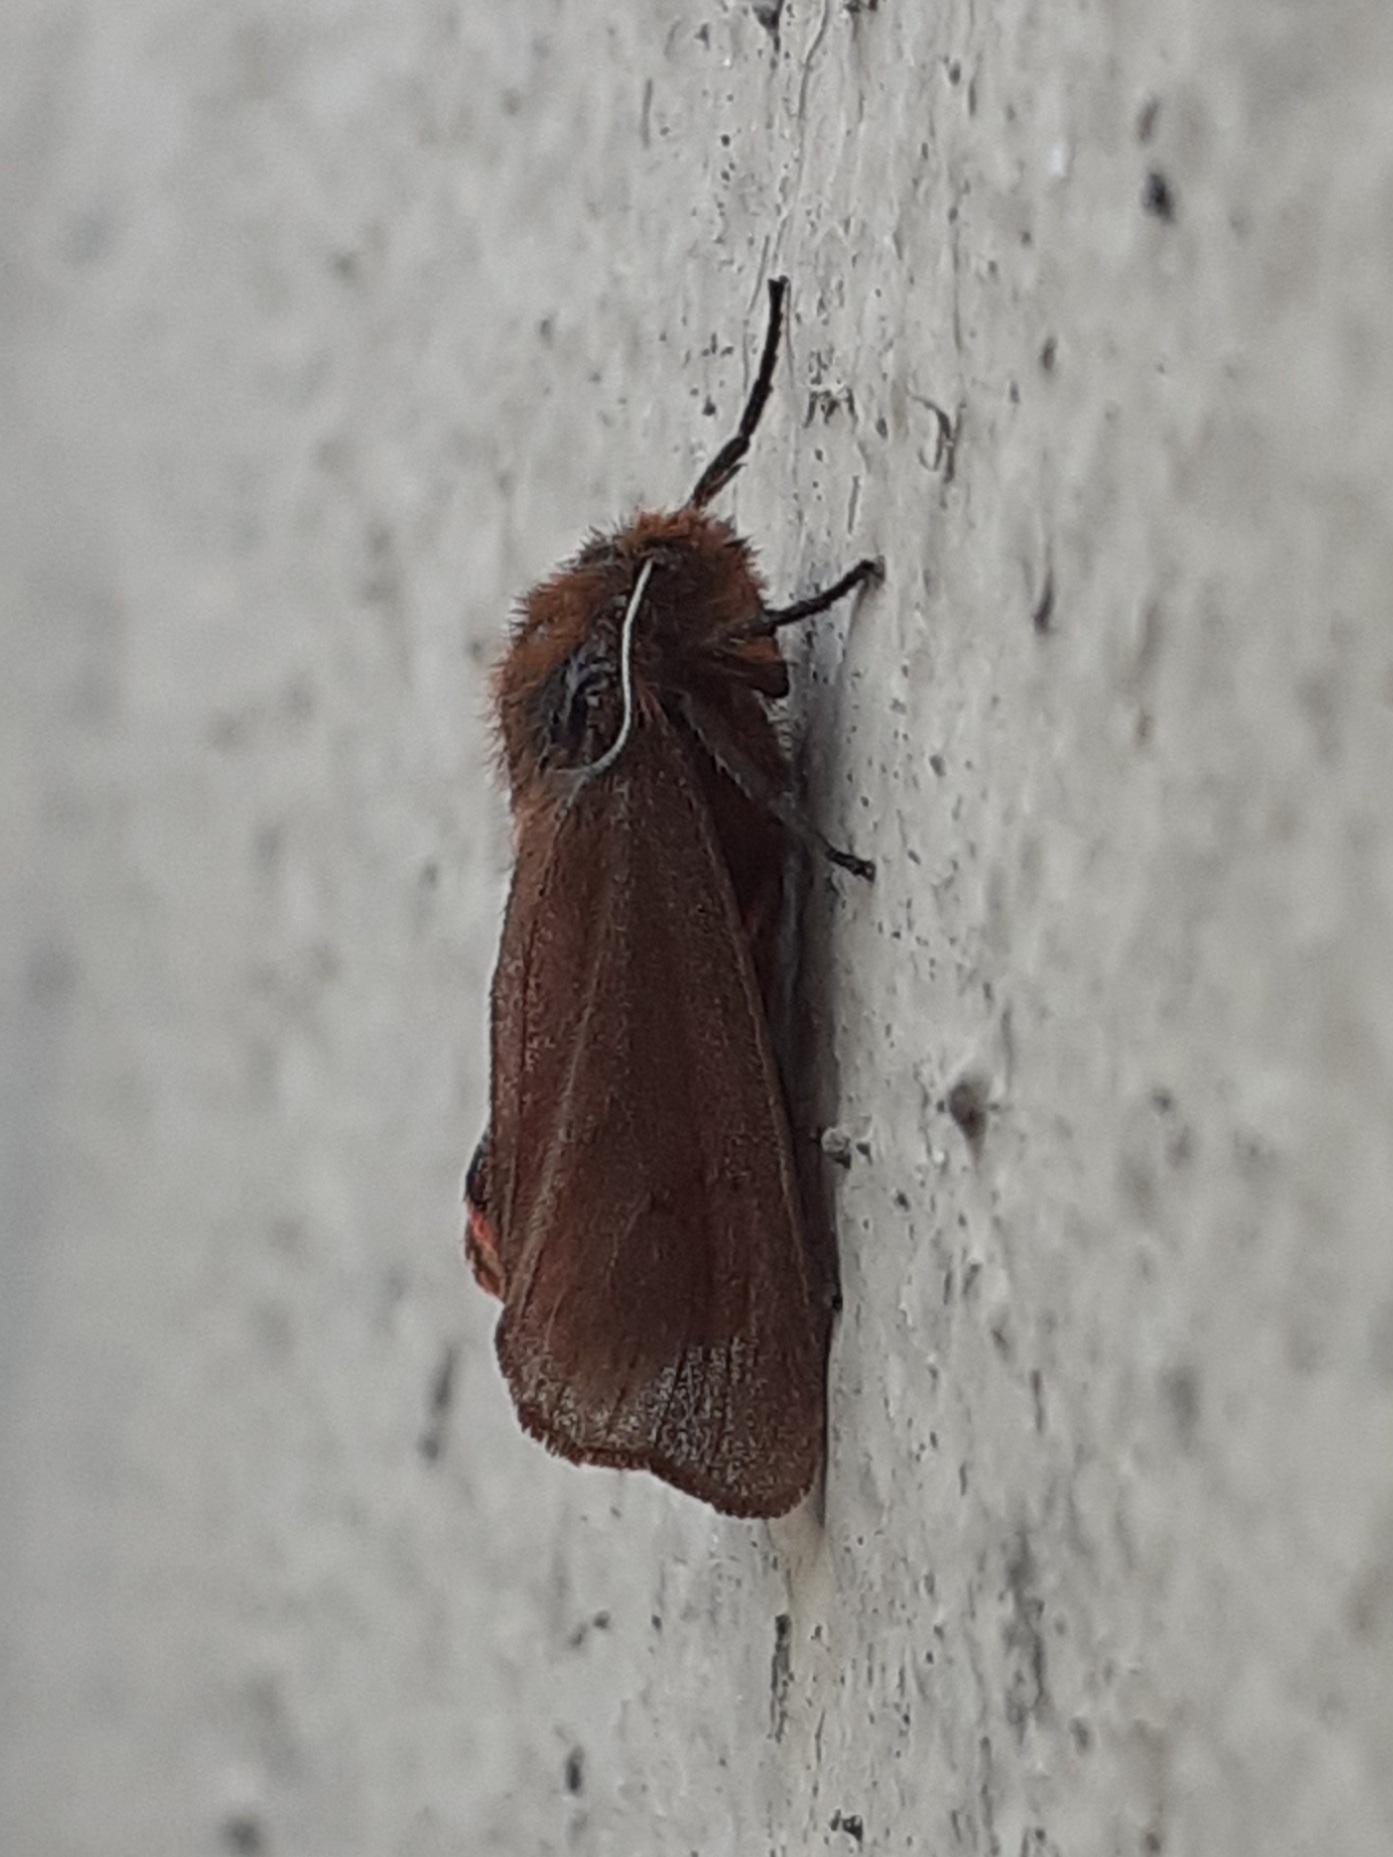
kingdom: Animalia
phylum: Arthropoda
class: Insecta
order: Lepidoptera
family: Erebidae
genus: Phragmatobia
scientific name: Phragmatobia fuliginosa
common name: Ruby tiger
